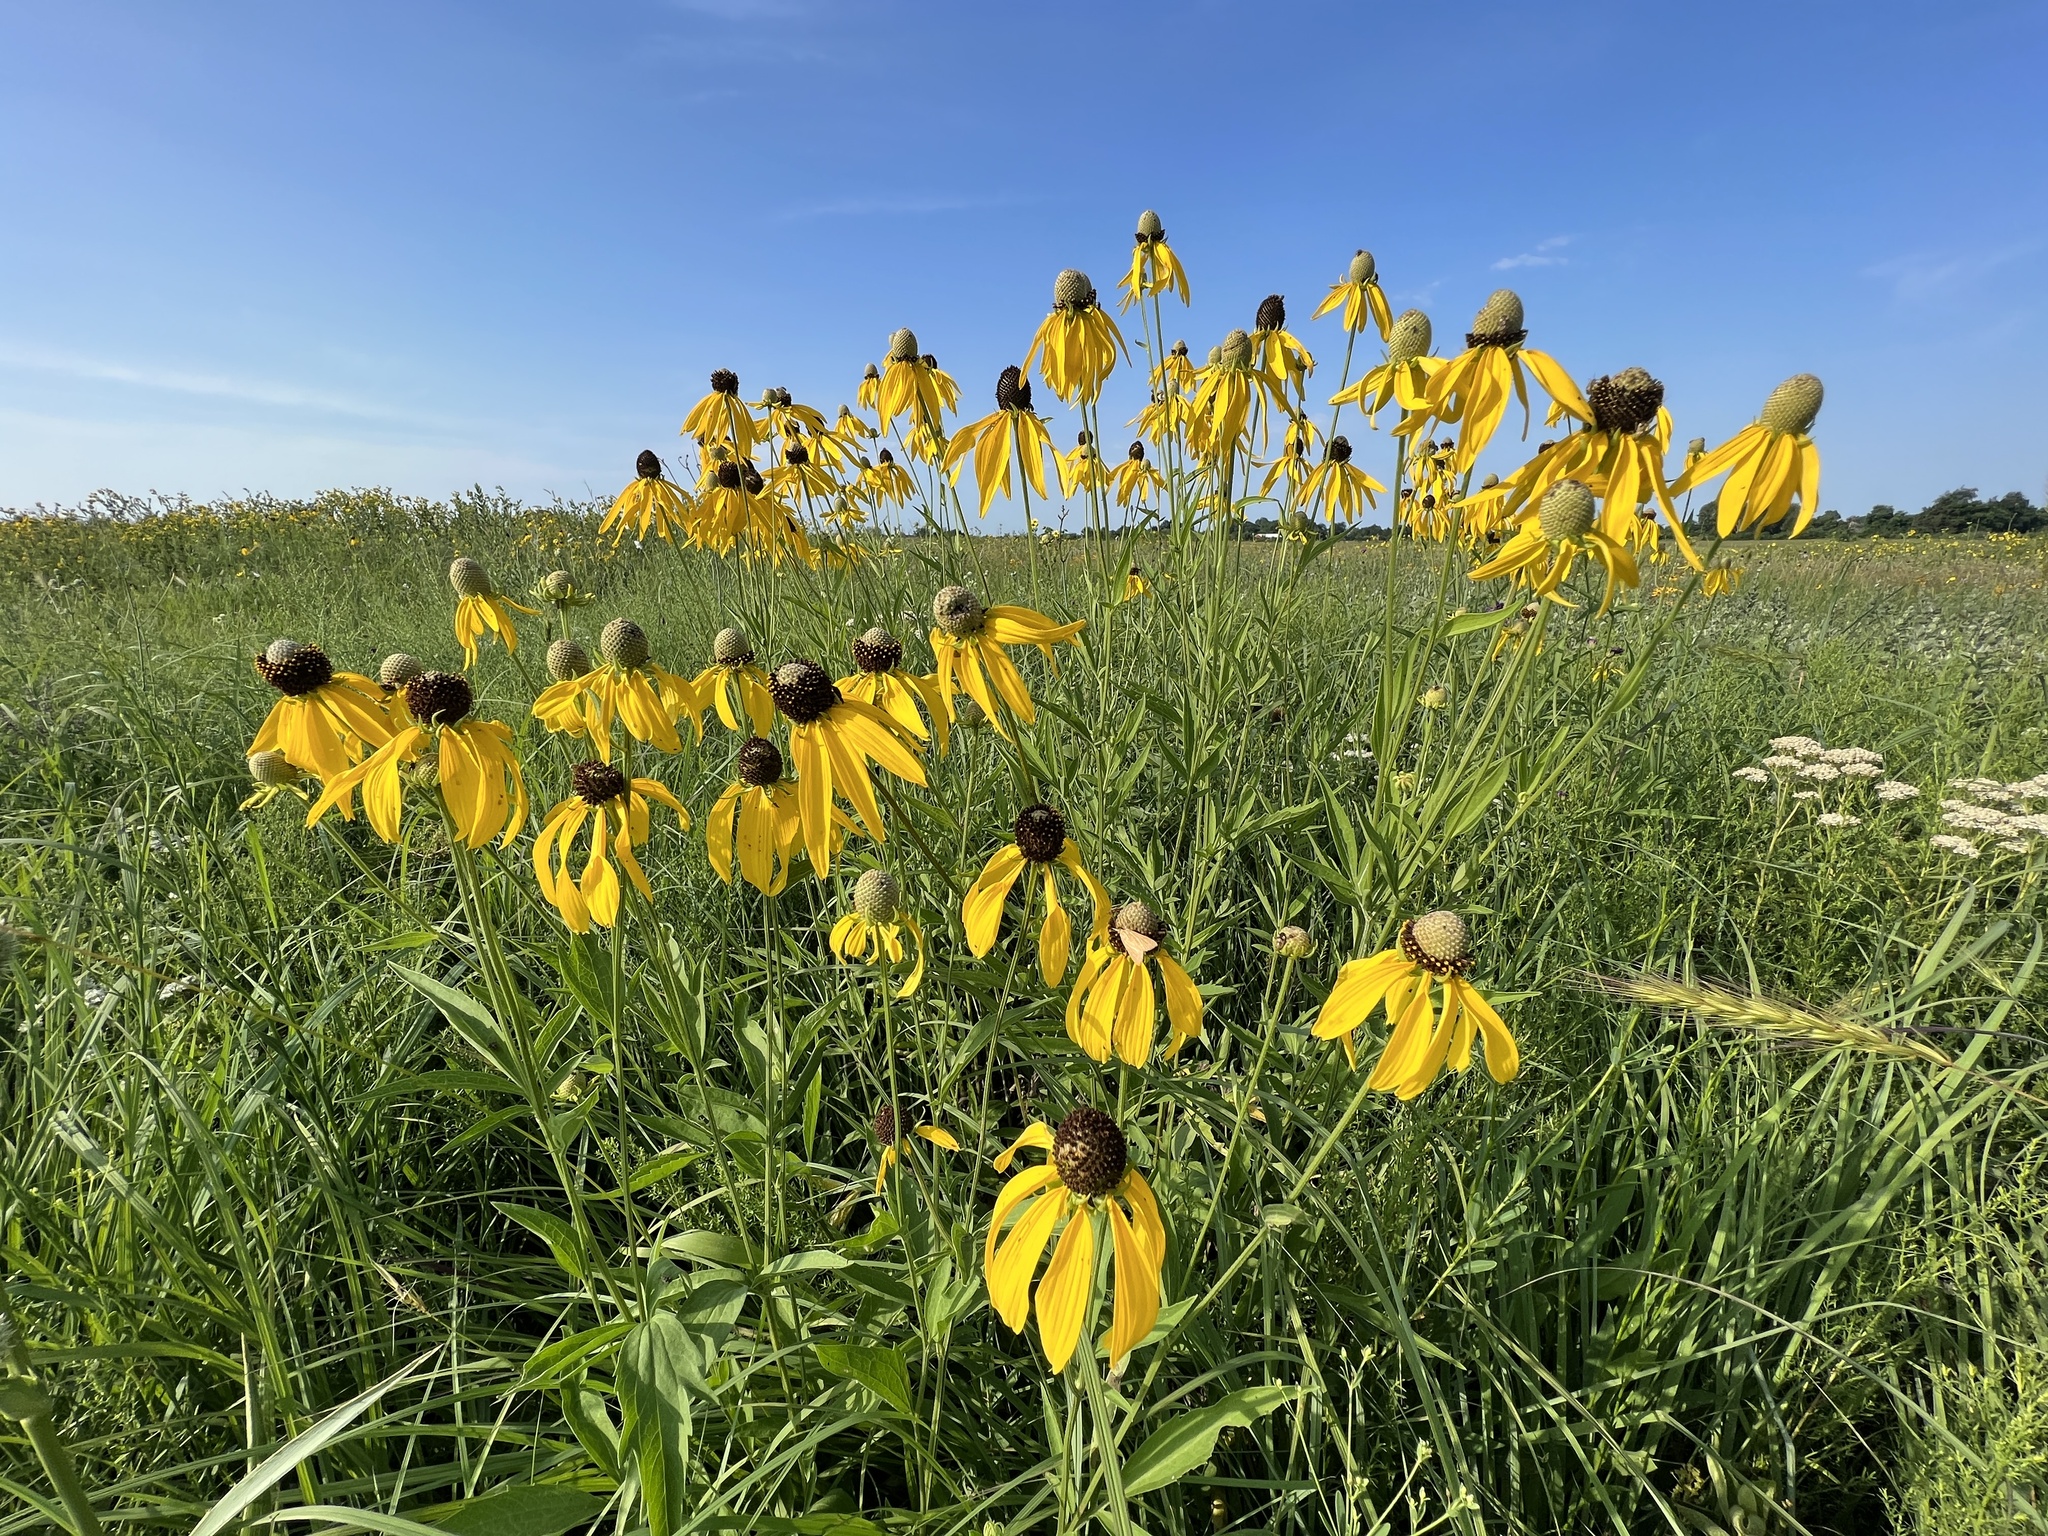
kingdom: Plantae
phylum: Tracheophyta
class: Magnoliopsida
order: Asterales
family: Asteraceae
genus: Ratibida
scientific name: Ratibida pinnata
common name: Drooping prairie-coneflower
